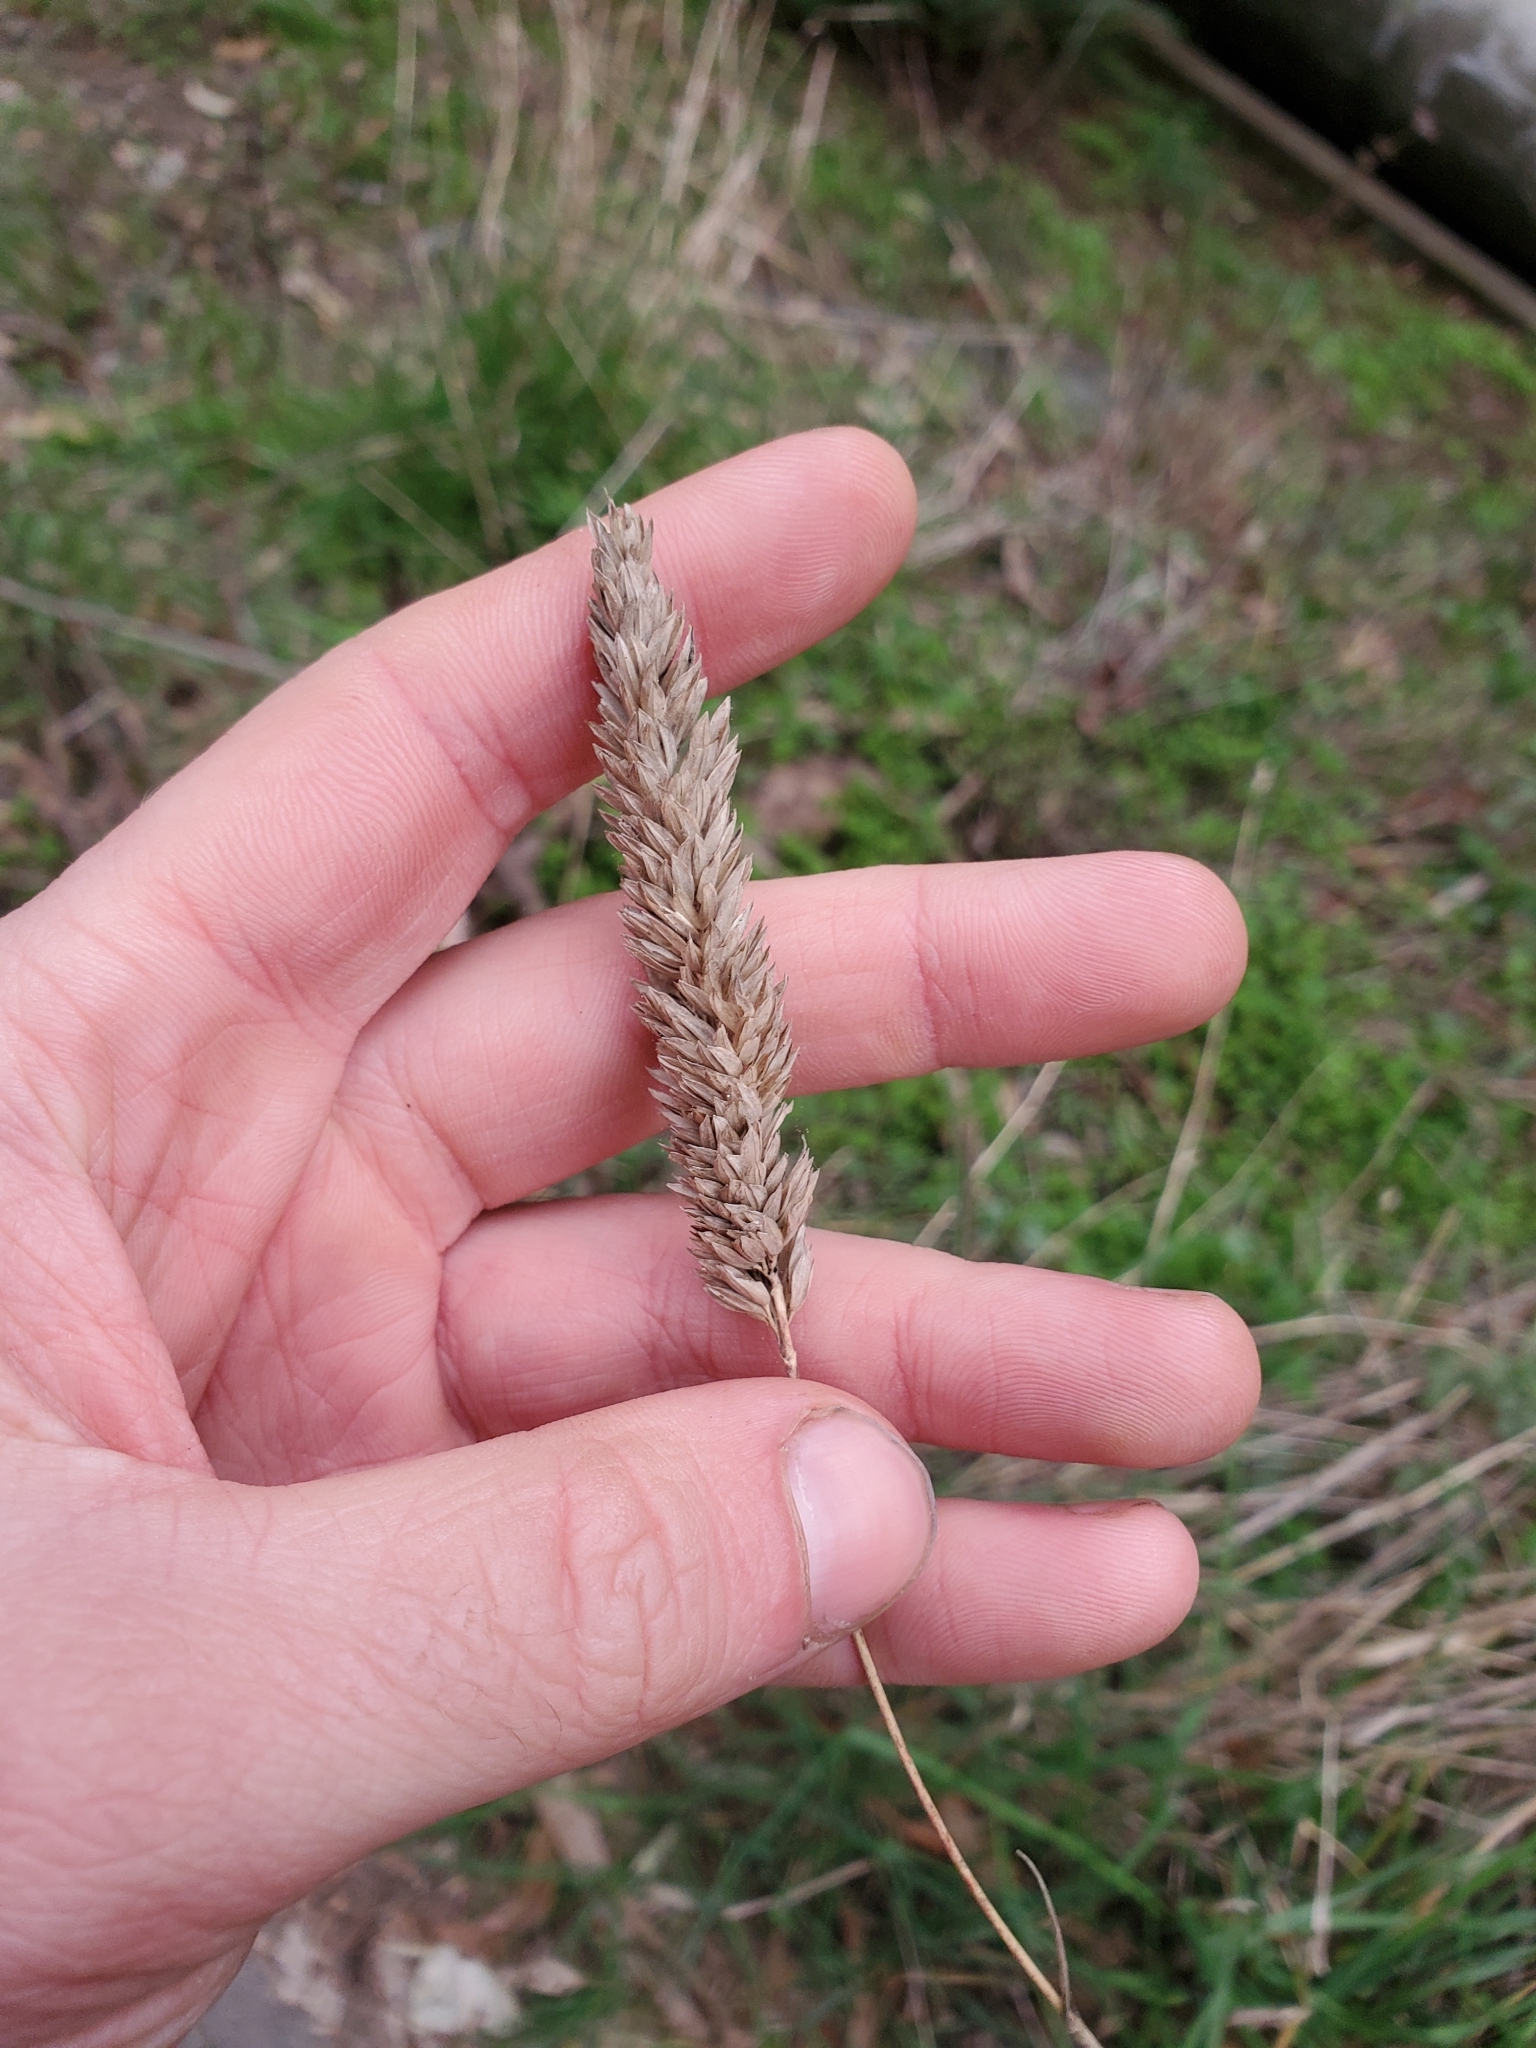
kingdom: Plantae
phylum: Tracheophyta
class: Liliopsida
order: Poales
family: Poaceae
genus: Phalaris
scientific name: Phalaris aquatica
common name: Bulbous canary-grass
